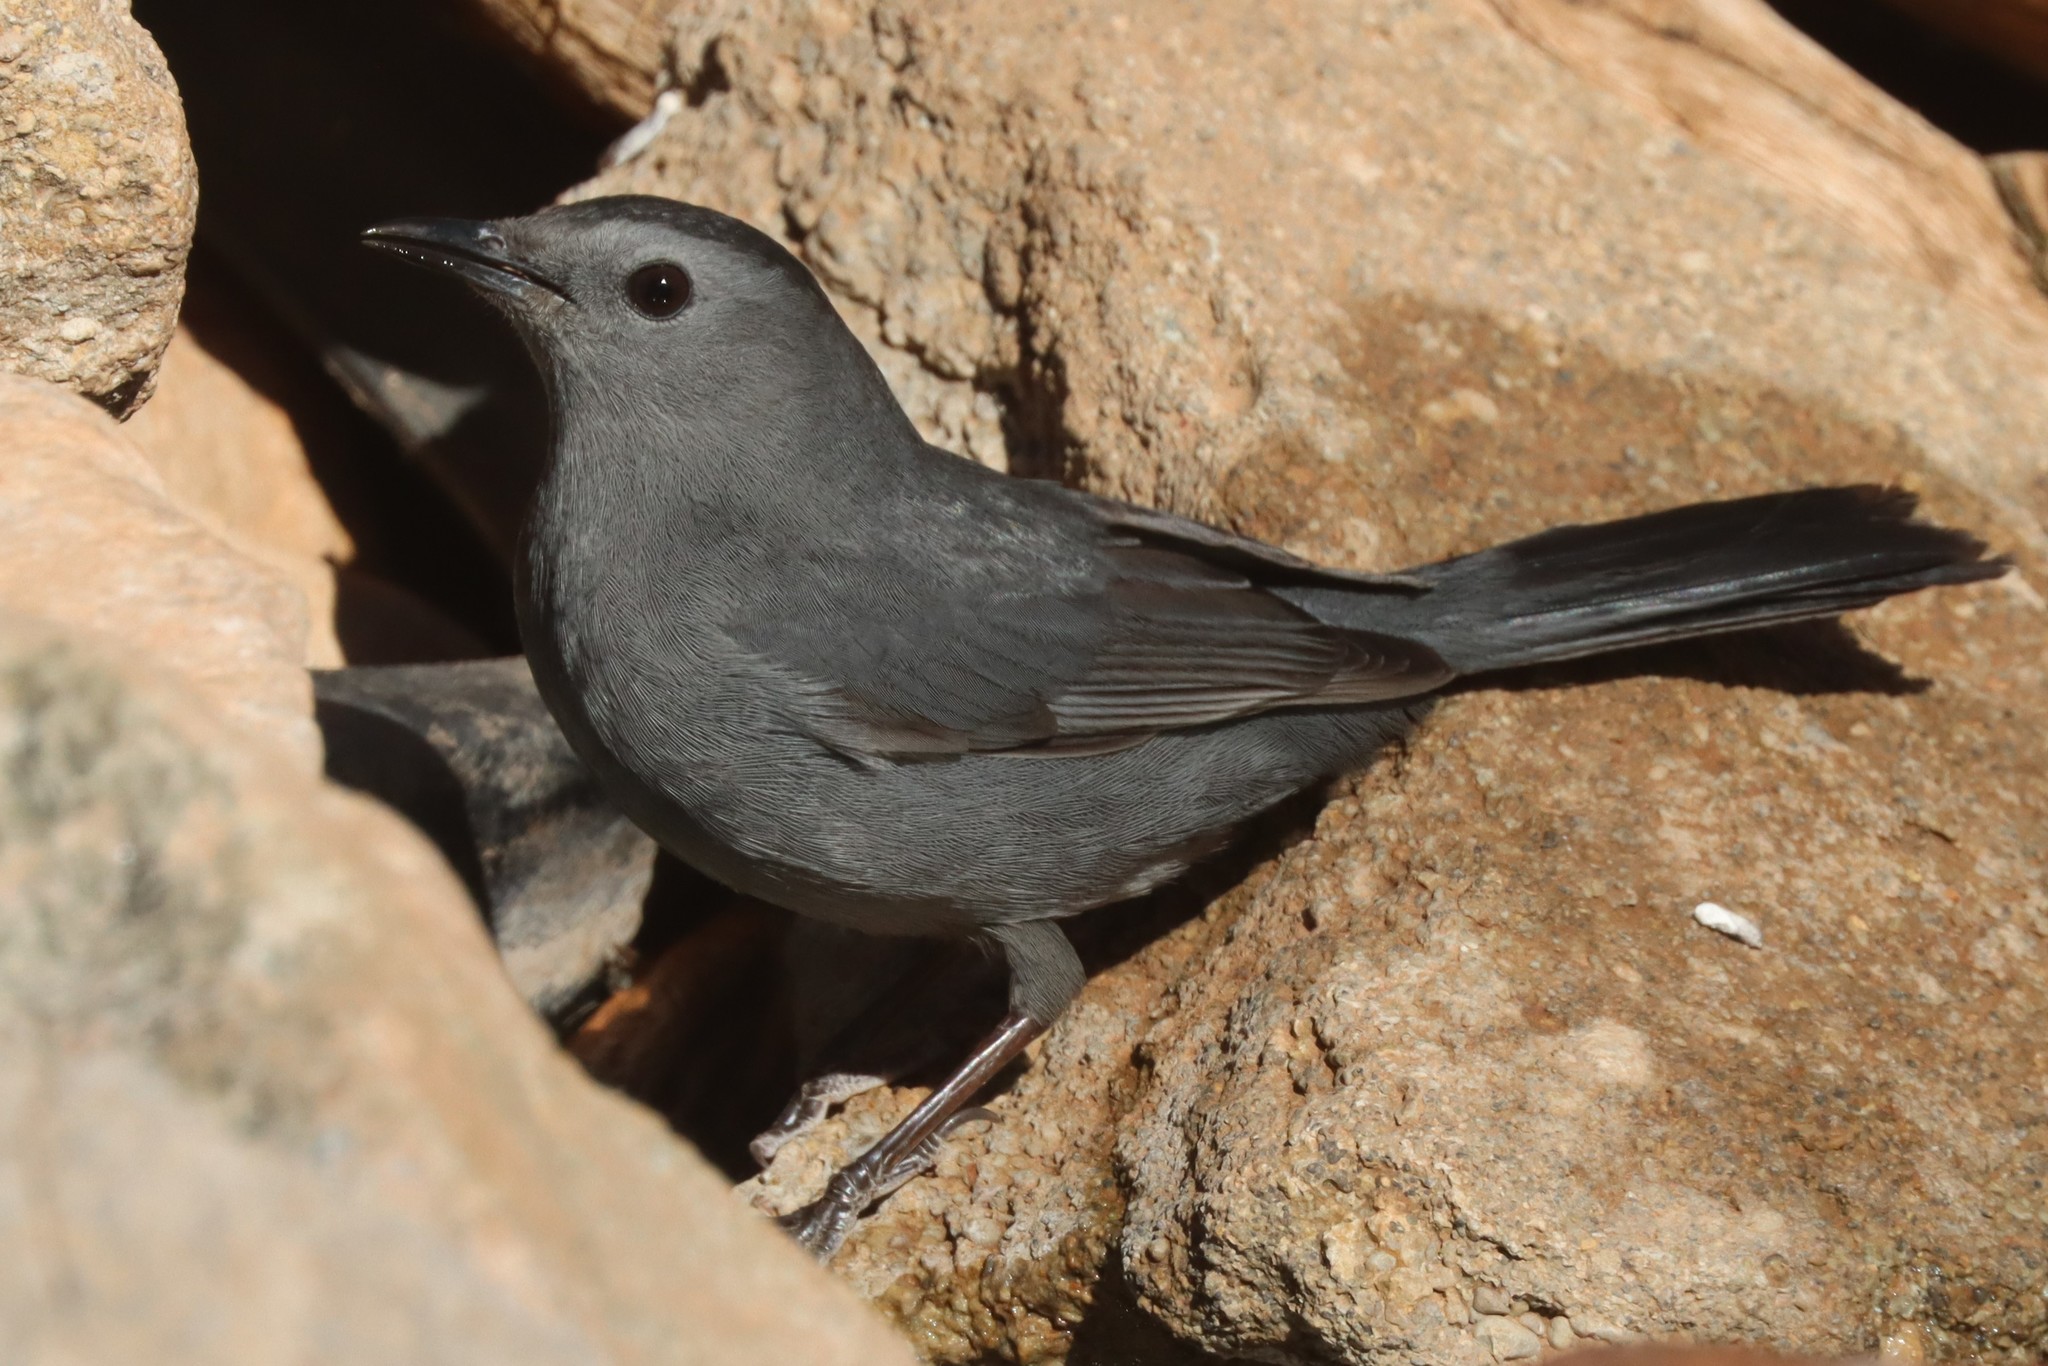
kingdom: Animalia
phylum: Chordata
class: Aves
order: Passeriformes
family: Mimidae
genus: Dumetella
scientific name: Dumetella carolinensis
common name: Gray catbird
